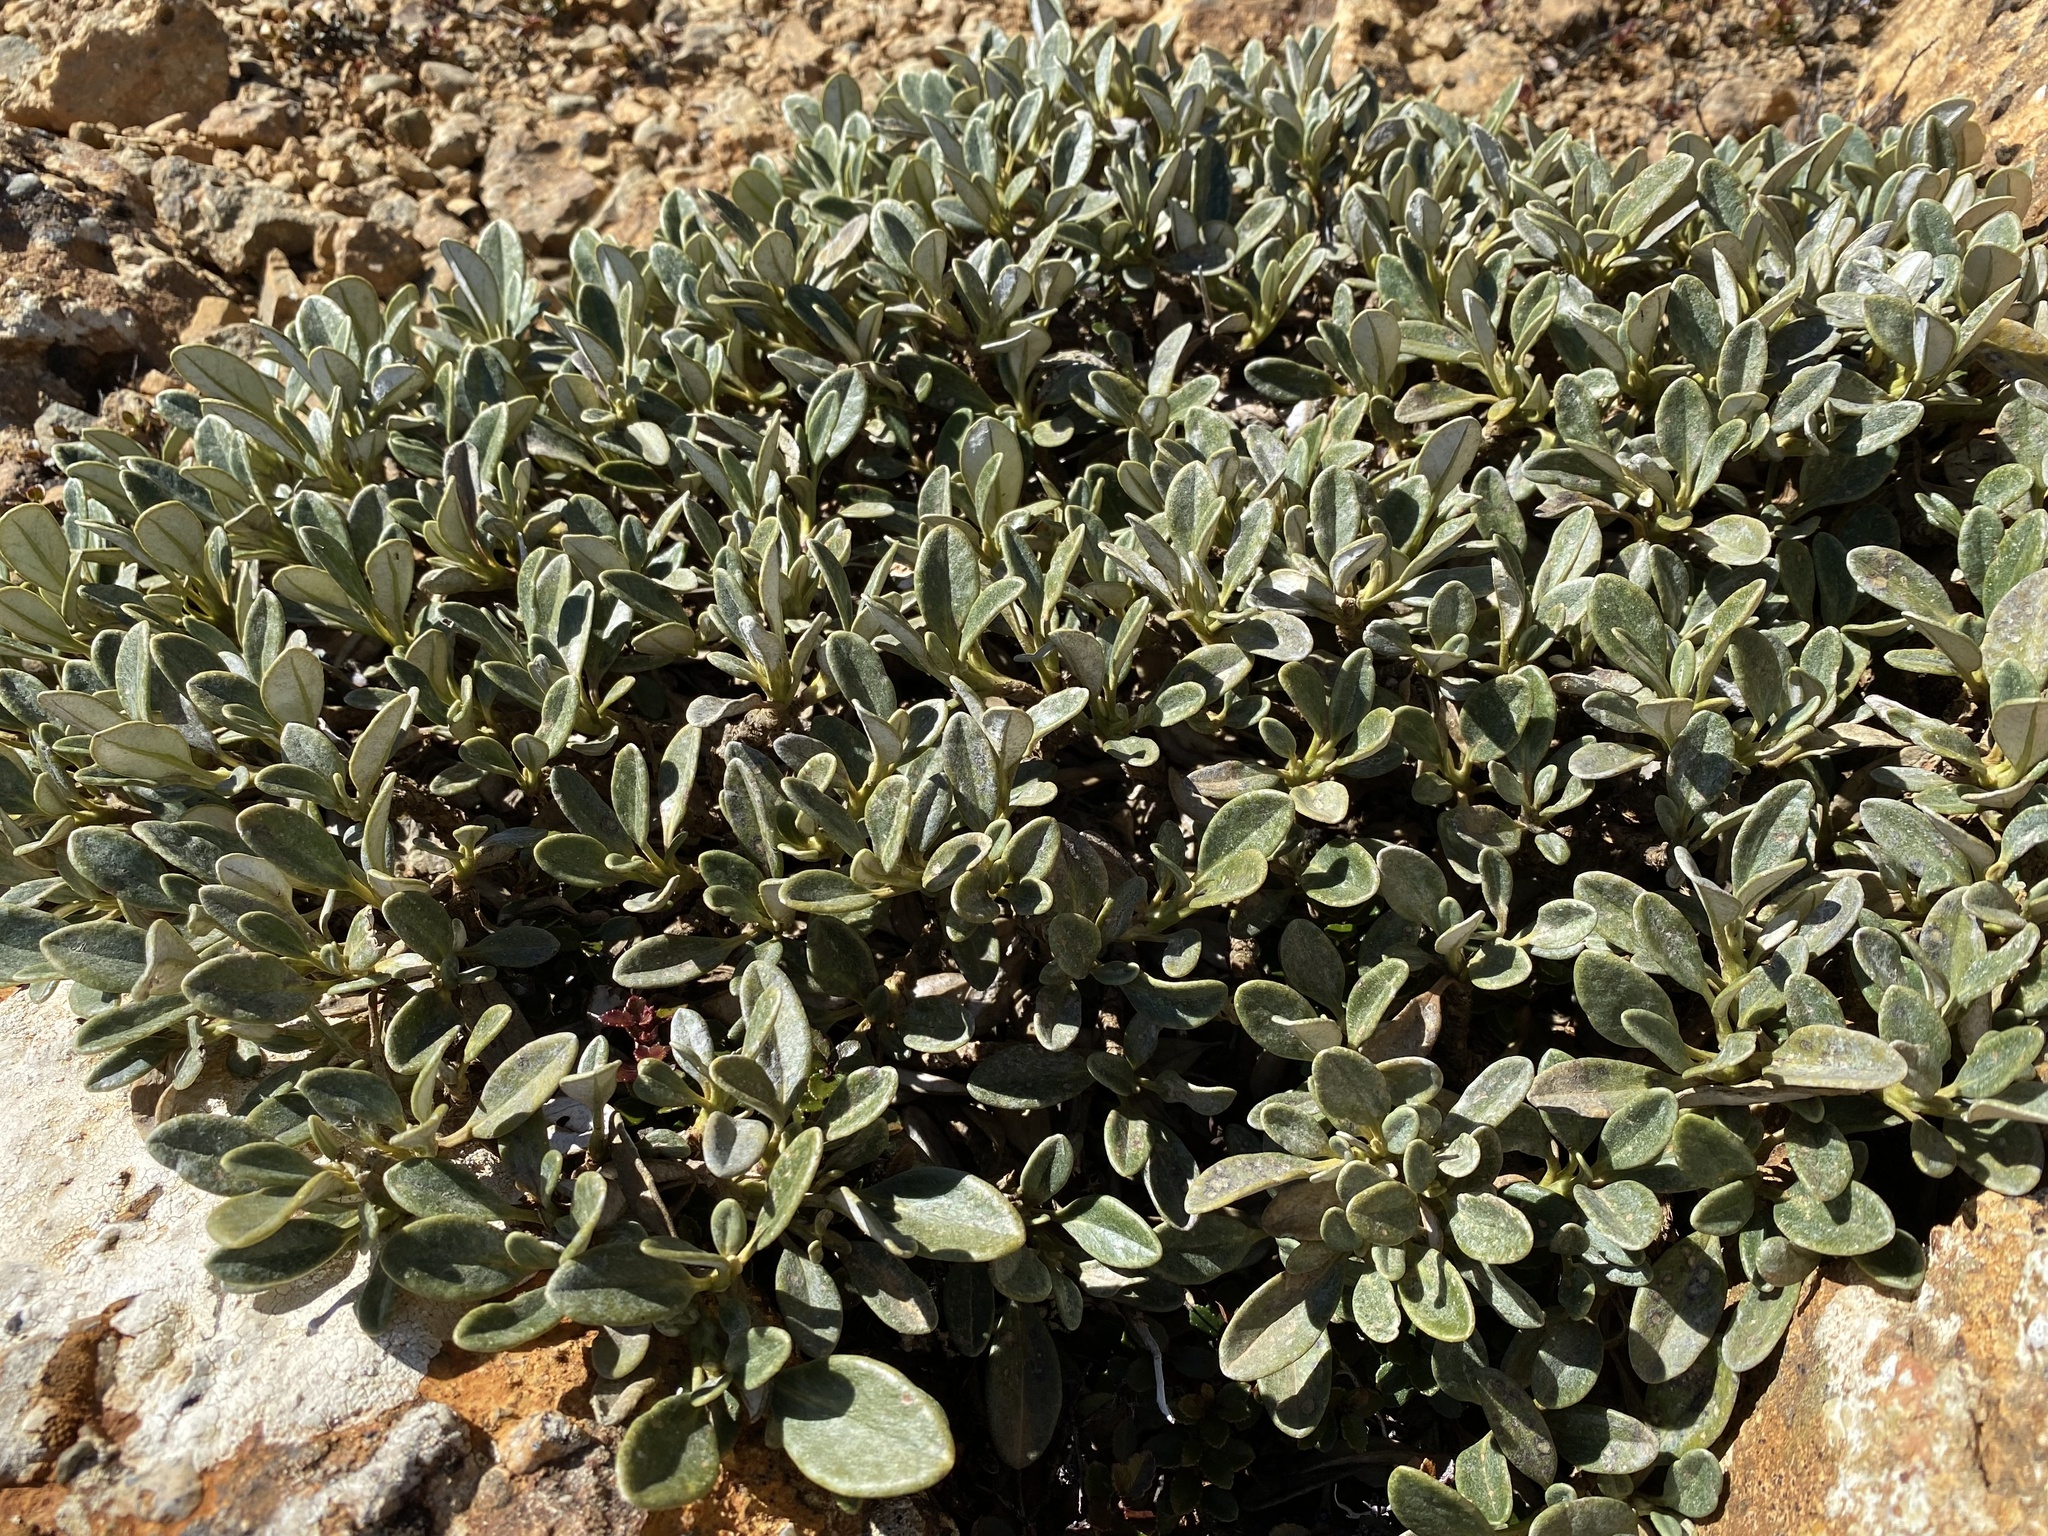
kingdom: Plantae
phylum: Tracheophyta
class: Magnoliopsida
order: Asterales
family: Asteraceae
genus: Brachyglottis
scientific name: Brachyglottis adamsii
